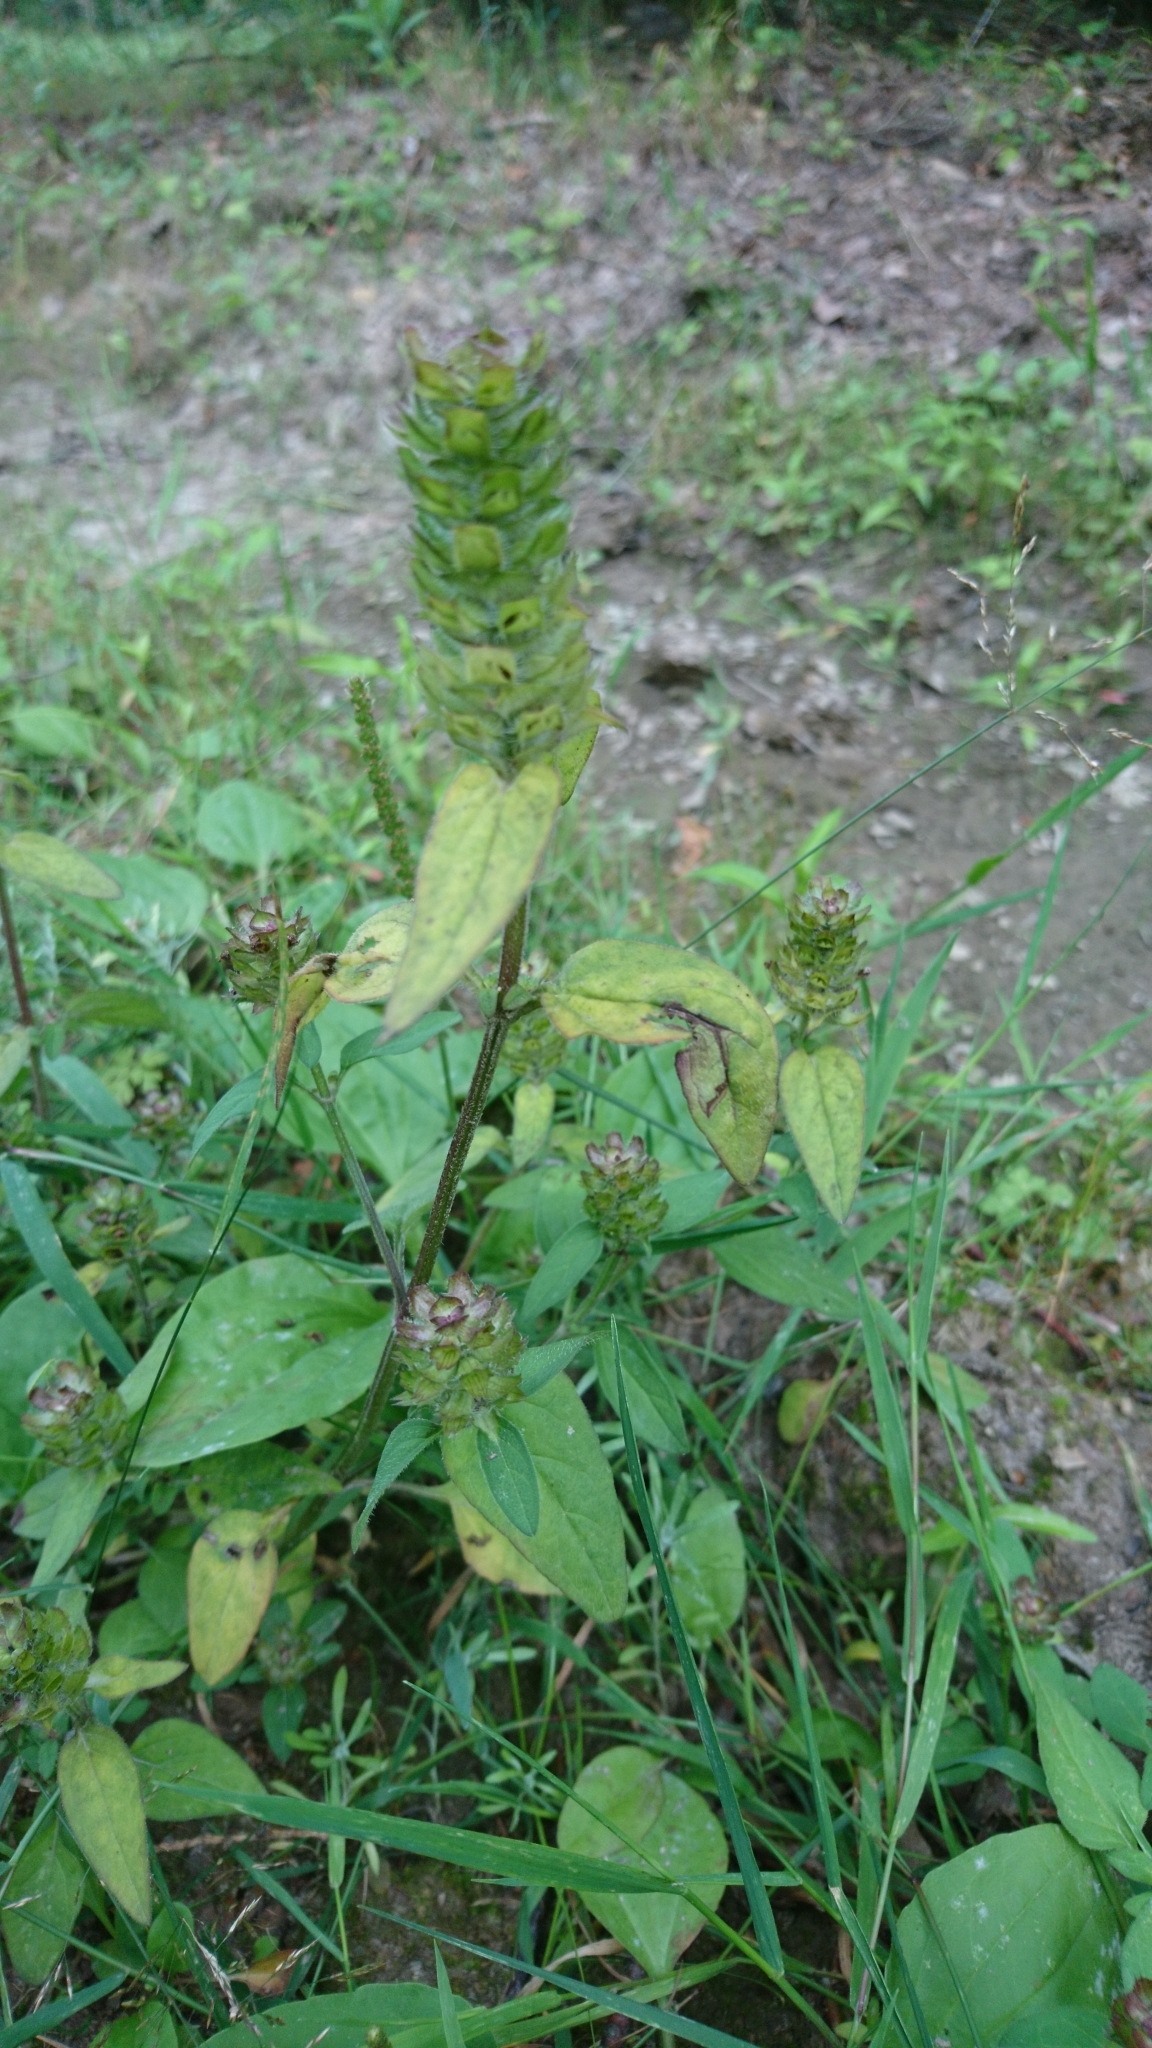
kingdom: Plantae
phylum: Tracheophyta
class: Magnoliopsida
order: Lamiales
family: Lamiaceae
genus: Prunella
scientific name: Prunella vulgaris
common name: Heal-all
